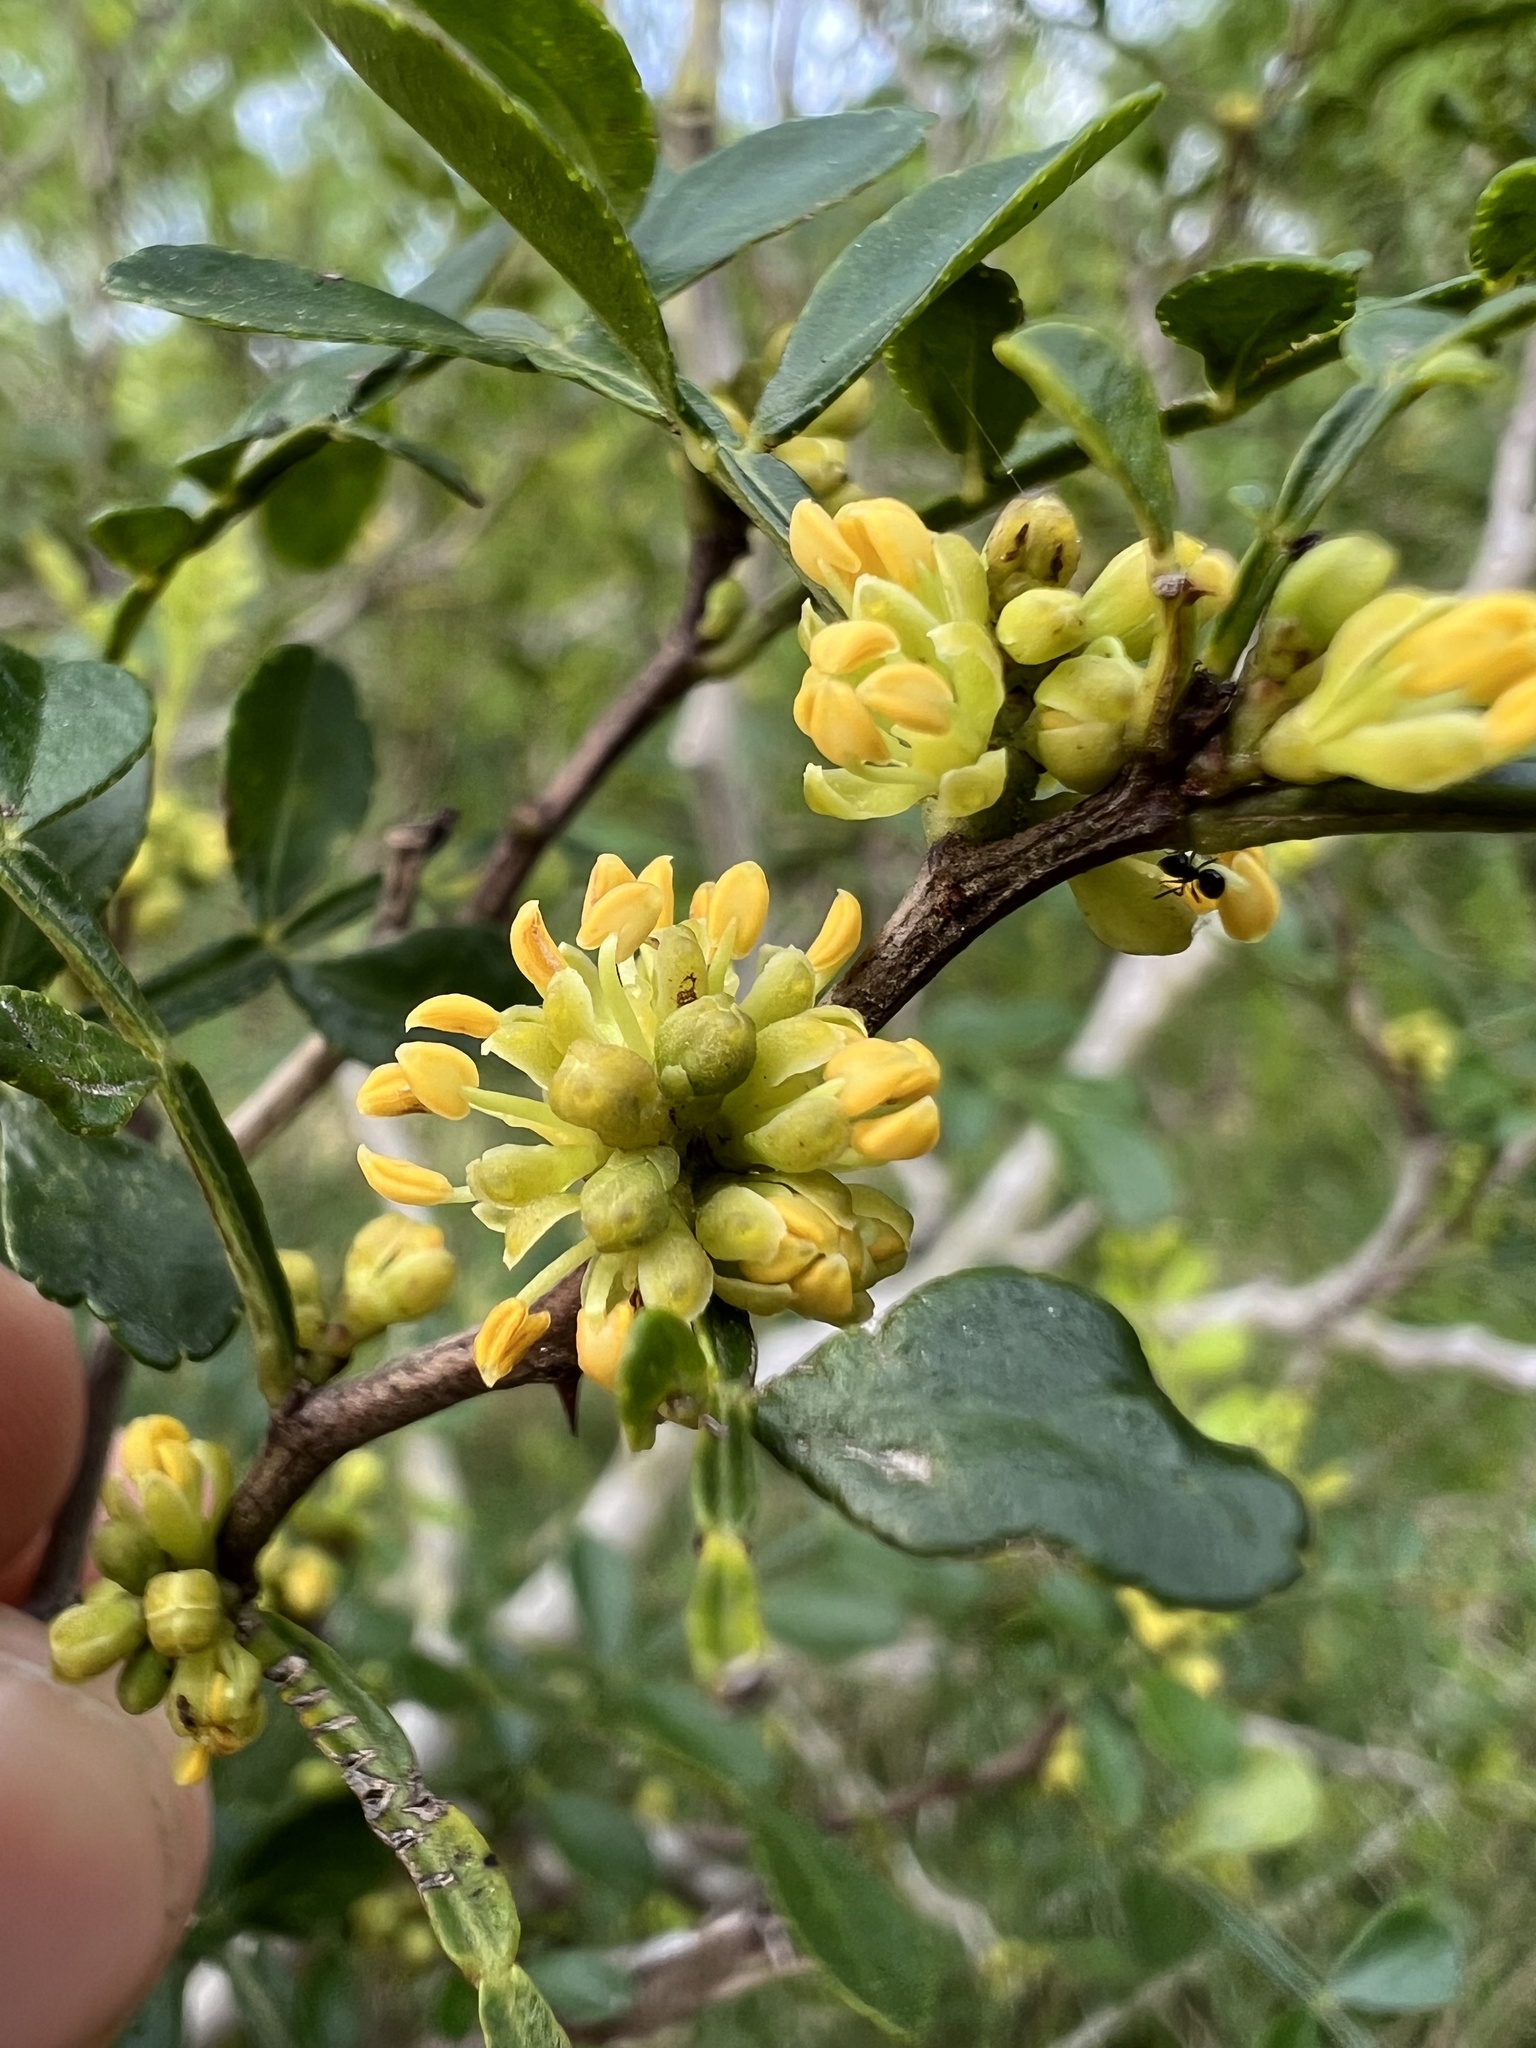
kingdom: Plantae
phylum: Tracheophyta
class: Magnoliopsida
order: Sapindales
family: Rutaceae
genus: Zanthoxylum
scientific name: Zanthoxylum fagara
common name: Lime prickly-ash
